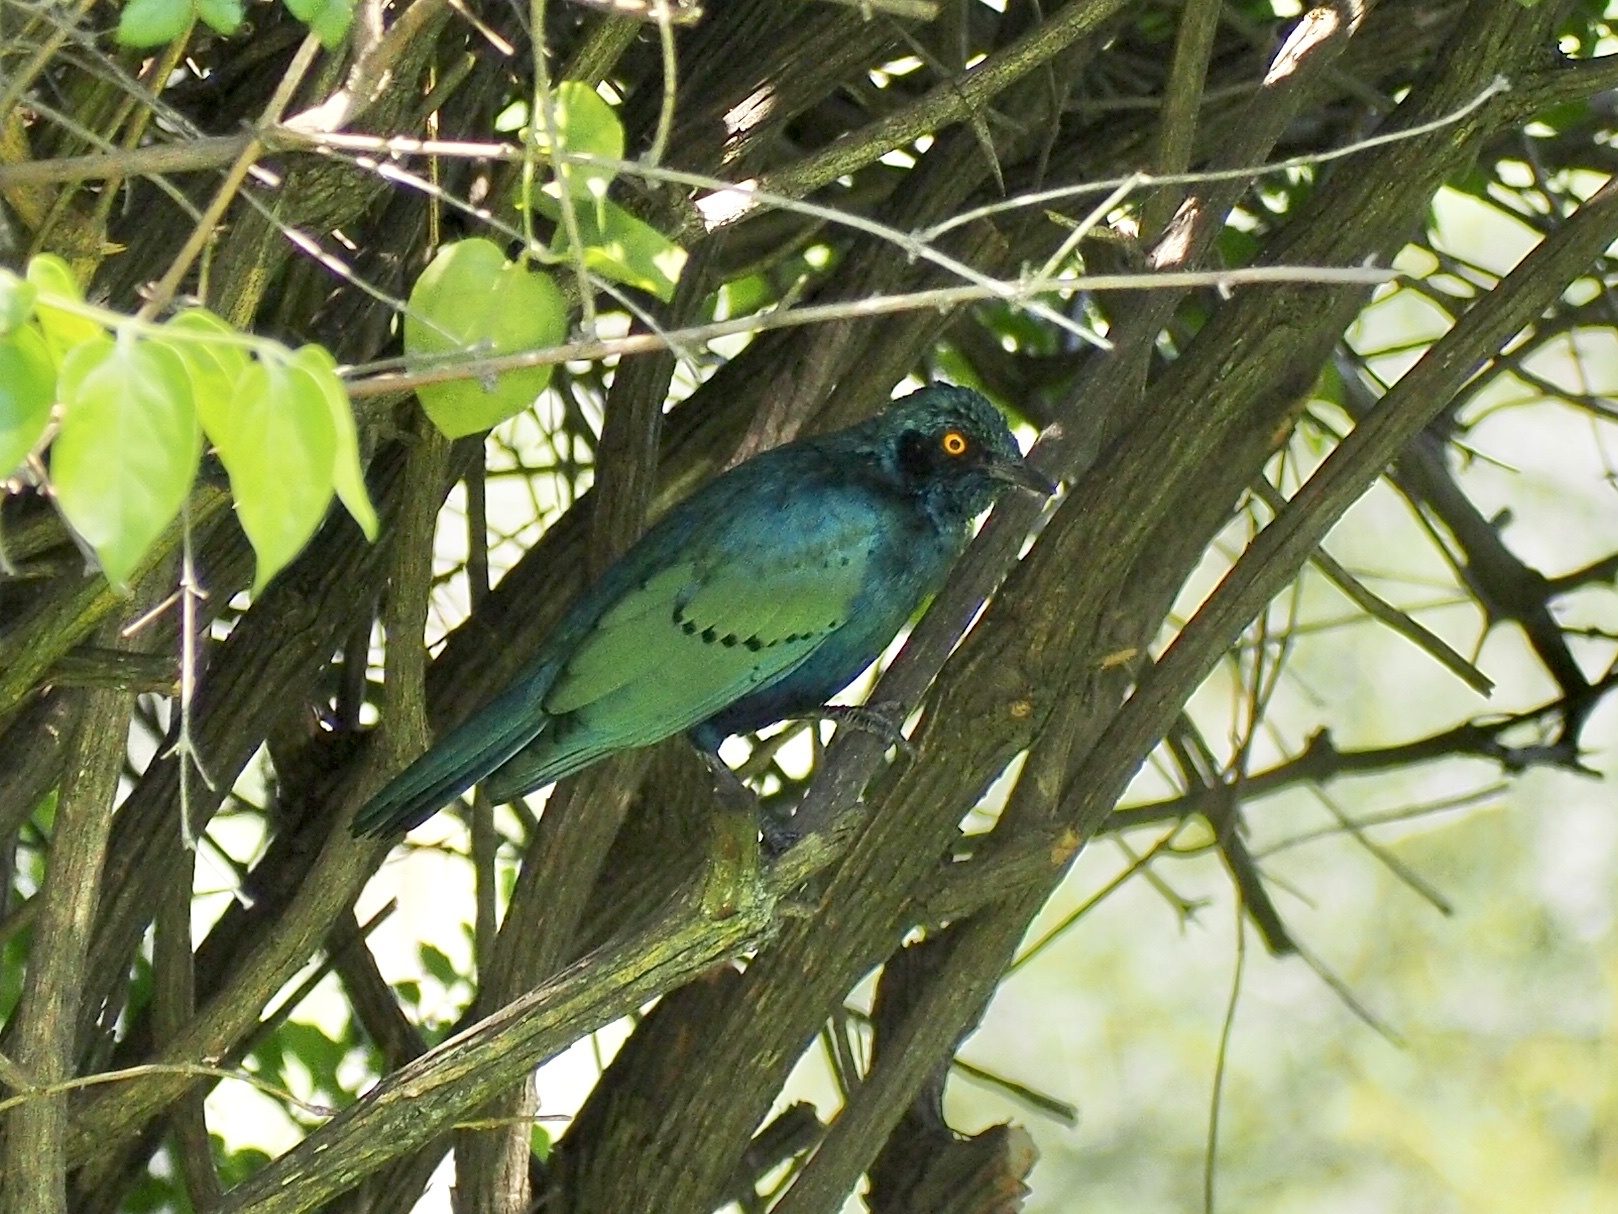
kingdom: Animalia
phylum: Chordata
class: Aves
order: Passeriformes
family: Sturnidae
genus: Lamprotornis
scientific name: Lamprotornis chalybaeus
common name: Greater blue-eared starling
